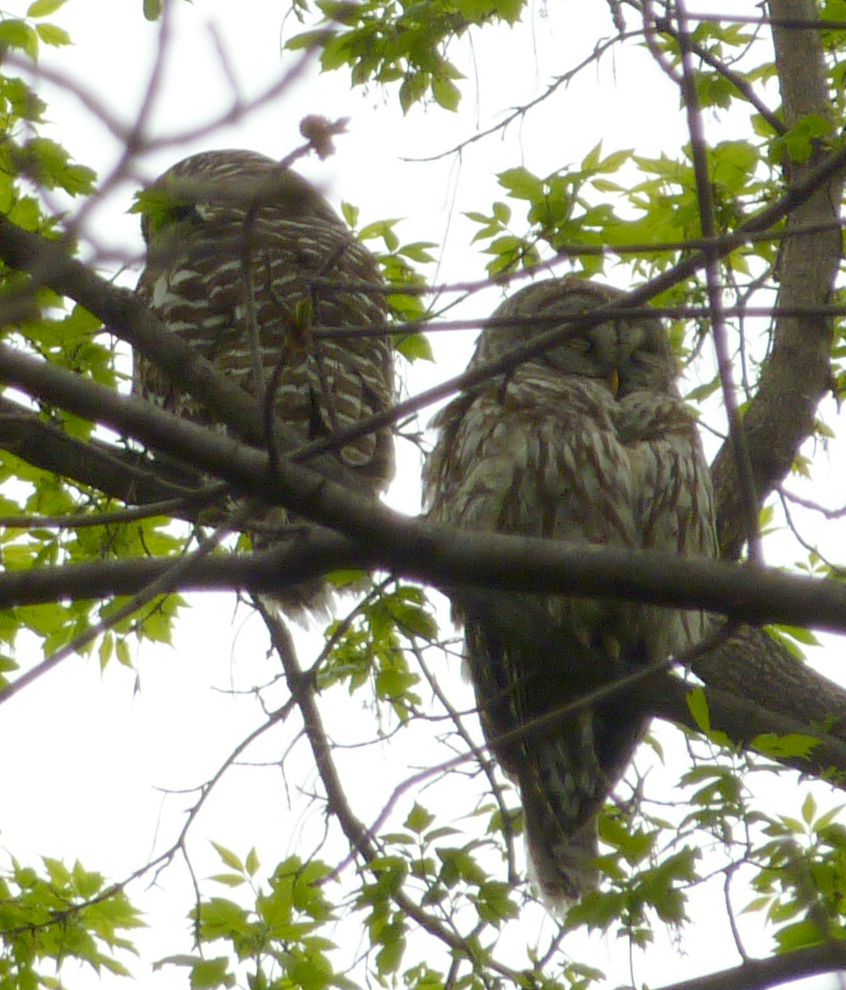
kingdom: Animalia
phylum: Chordata
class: Aves
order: Strigiformes
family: Strigidae
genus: Strix
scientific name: Strix varia
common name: Barred owl
